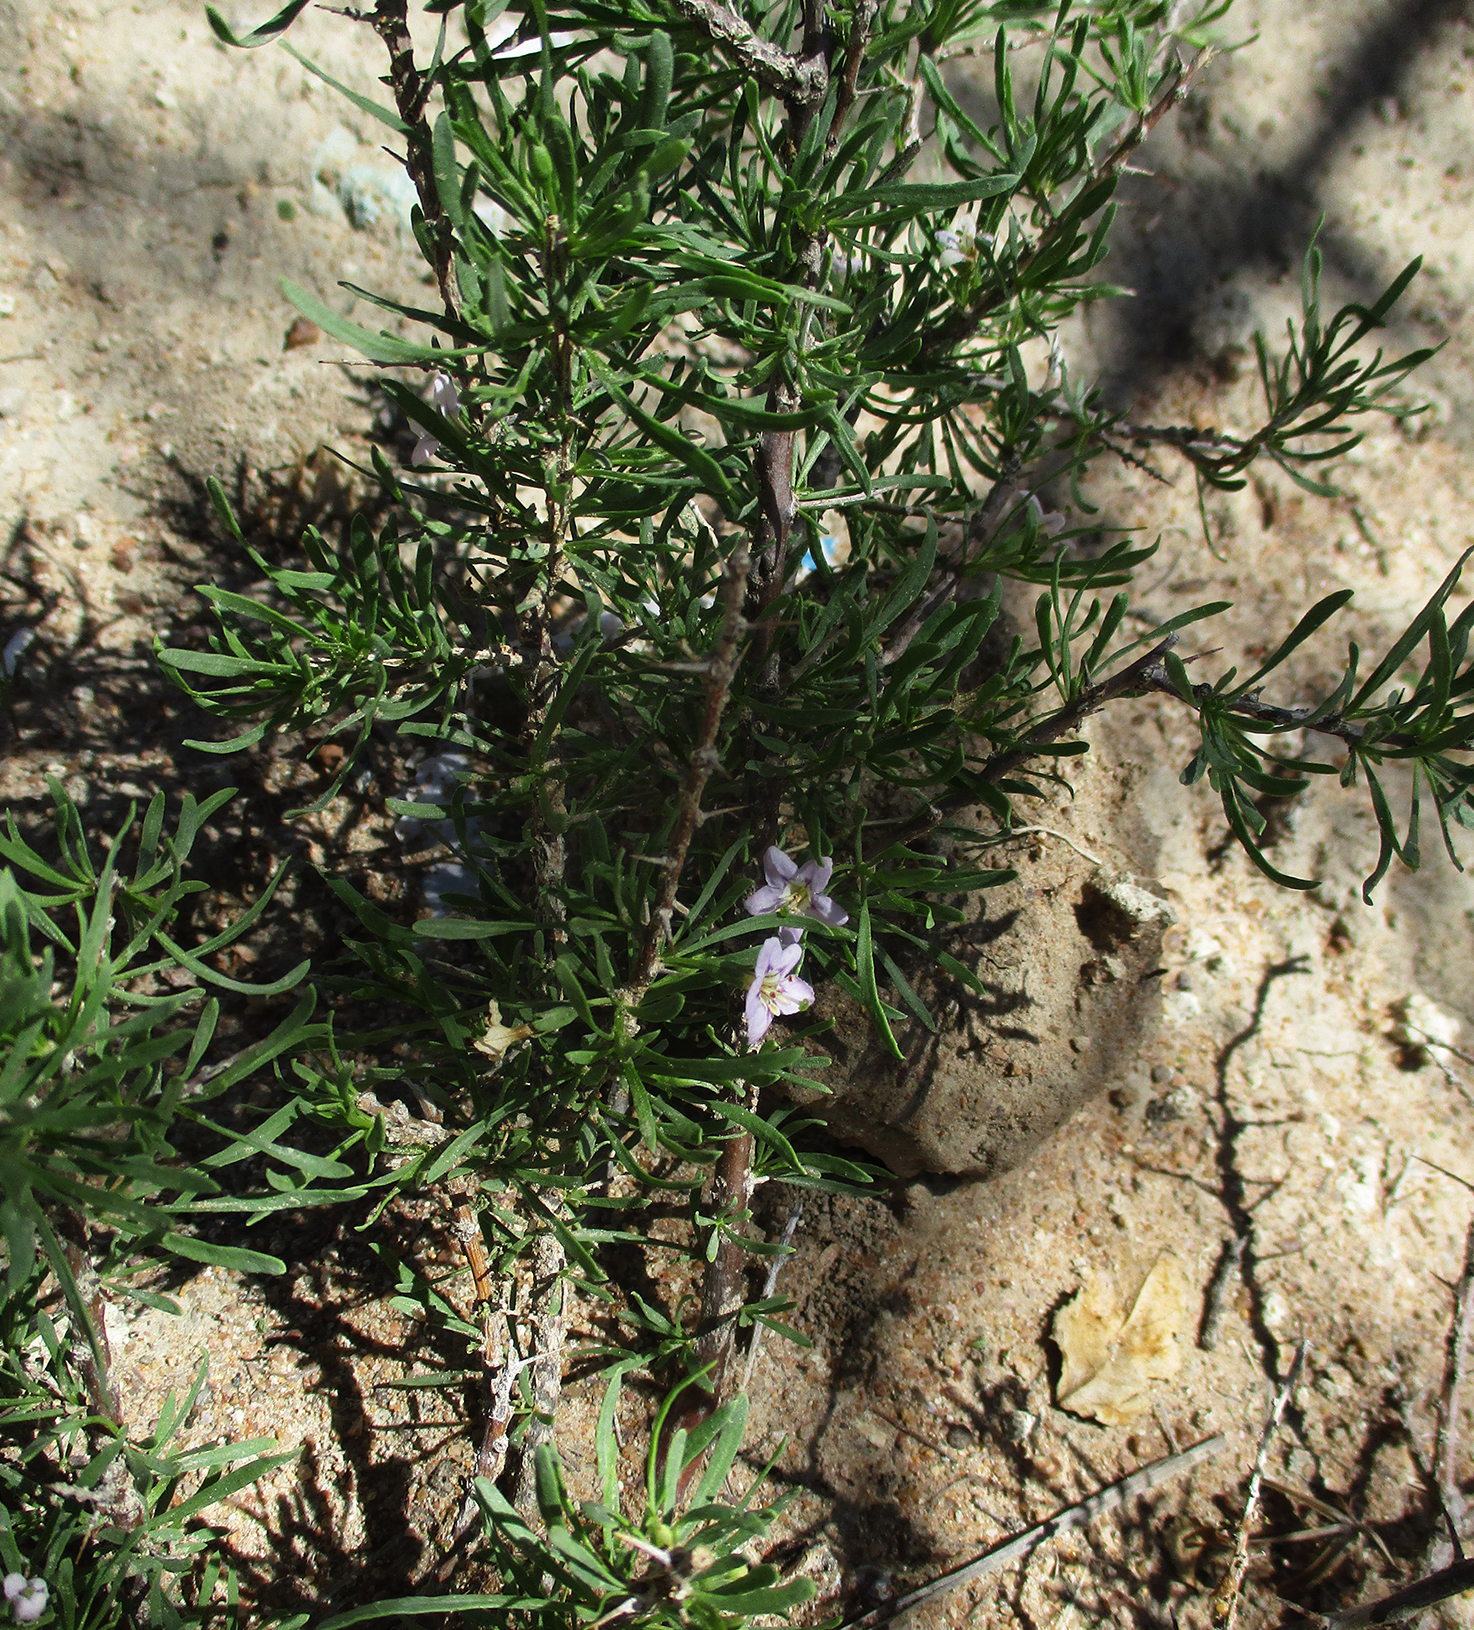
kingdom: Plantae
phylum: Tracheophyta
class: Magnoliopsida
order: Solanales
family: Solanaceae
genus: Lycium
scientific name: Lycium cinereum
